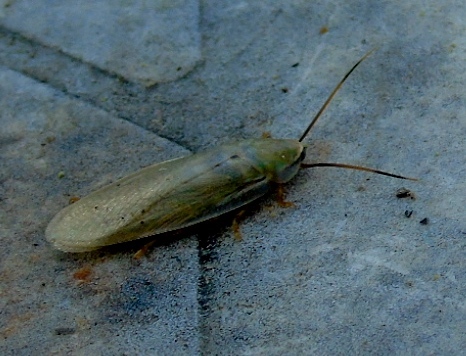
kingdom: Animalia
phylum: Arthropoda
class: Insecta
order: Blattodea
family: Blaberidae
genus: Panchlora
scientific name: Panchlora tolteca
